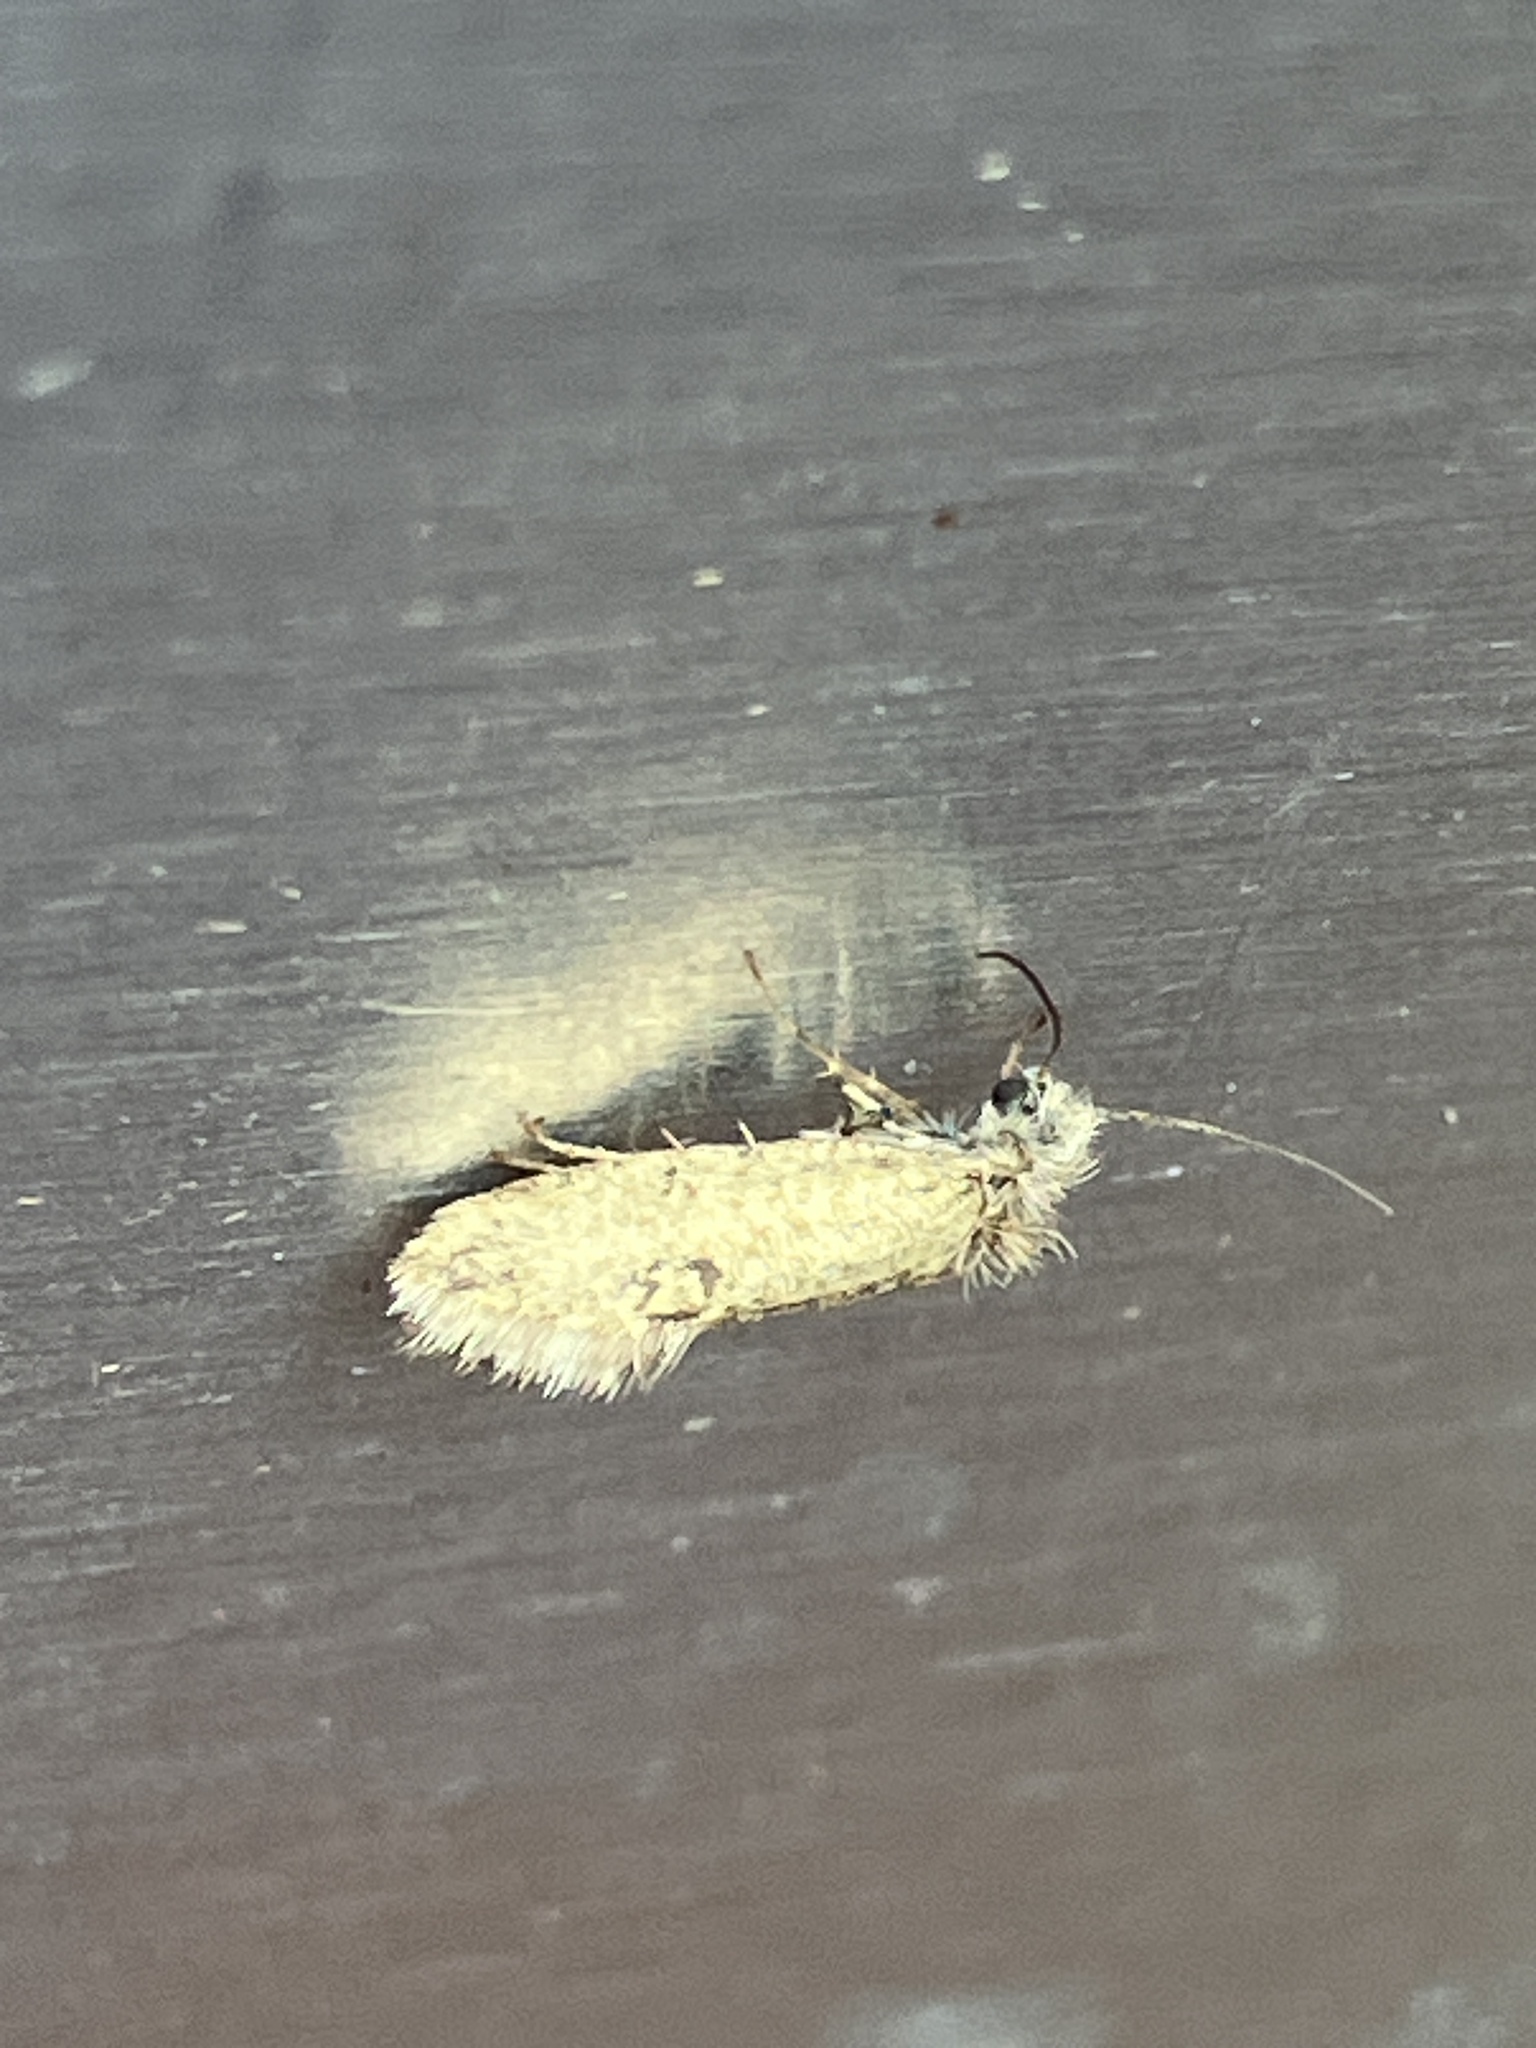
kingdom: Animalia
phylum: Arthropoda
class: Insecta
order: Lepidoptera
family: Eriocraniidae
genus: Dyseriocrania
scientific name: Dyseriocrania subpurpurella
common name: Common oak purple
